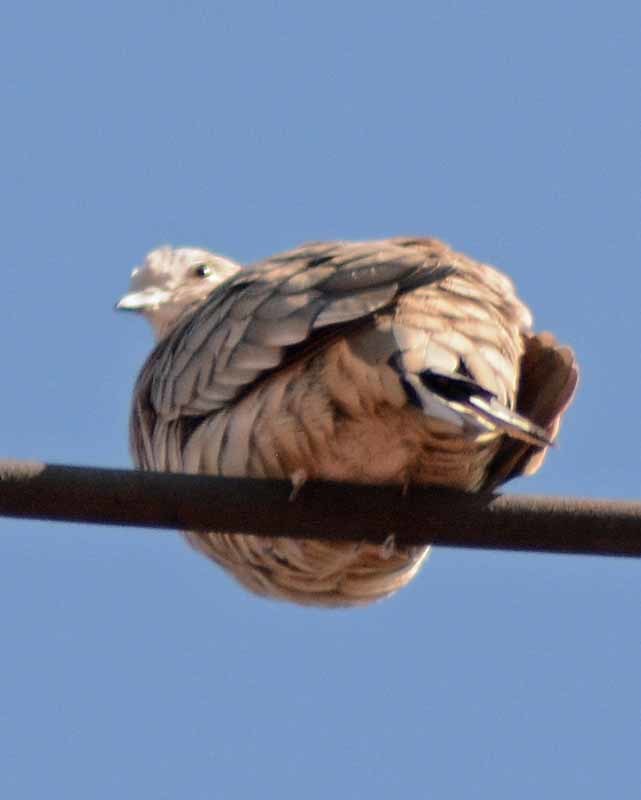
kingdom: Animalia
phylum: Chordata
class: Aves
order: Columbiformes
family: Columbidae
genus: Columbina
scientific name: Columbina inca
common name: Inca dove
